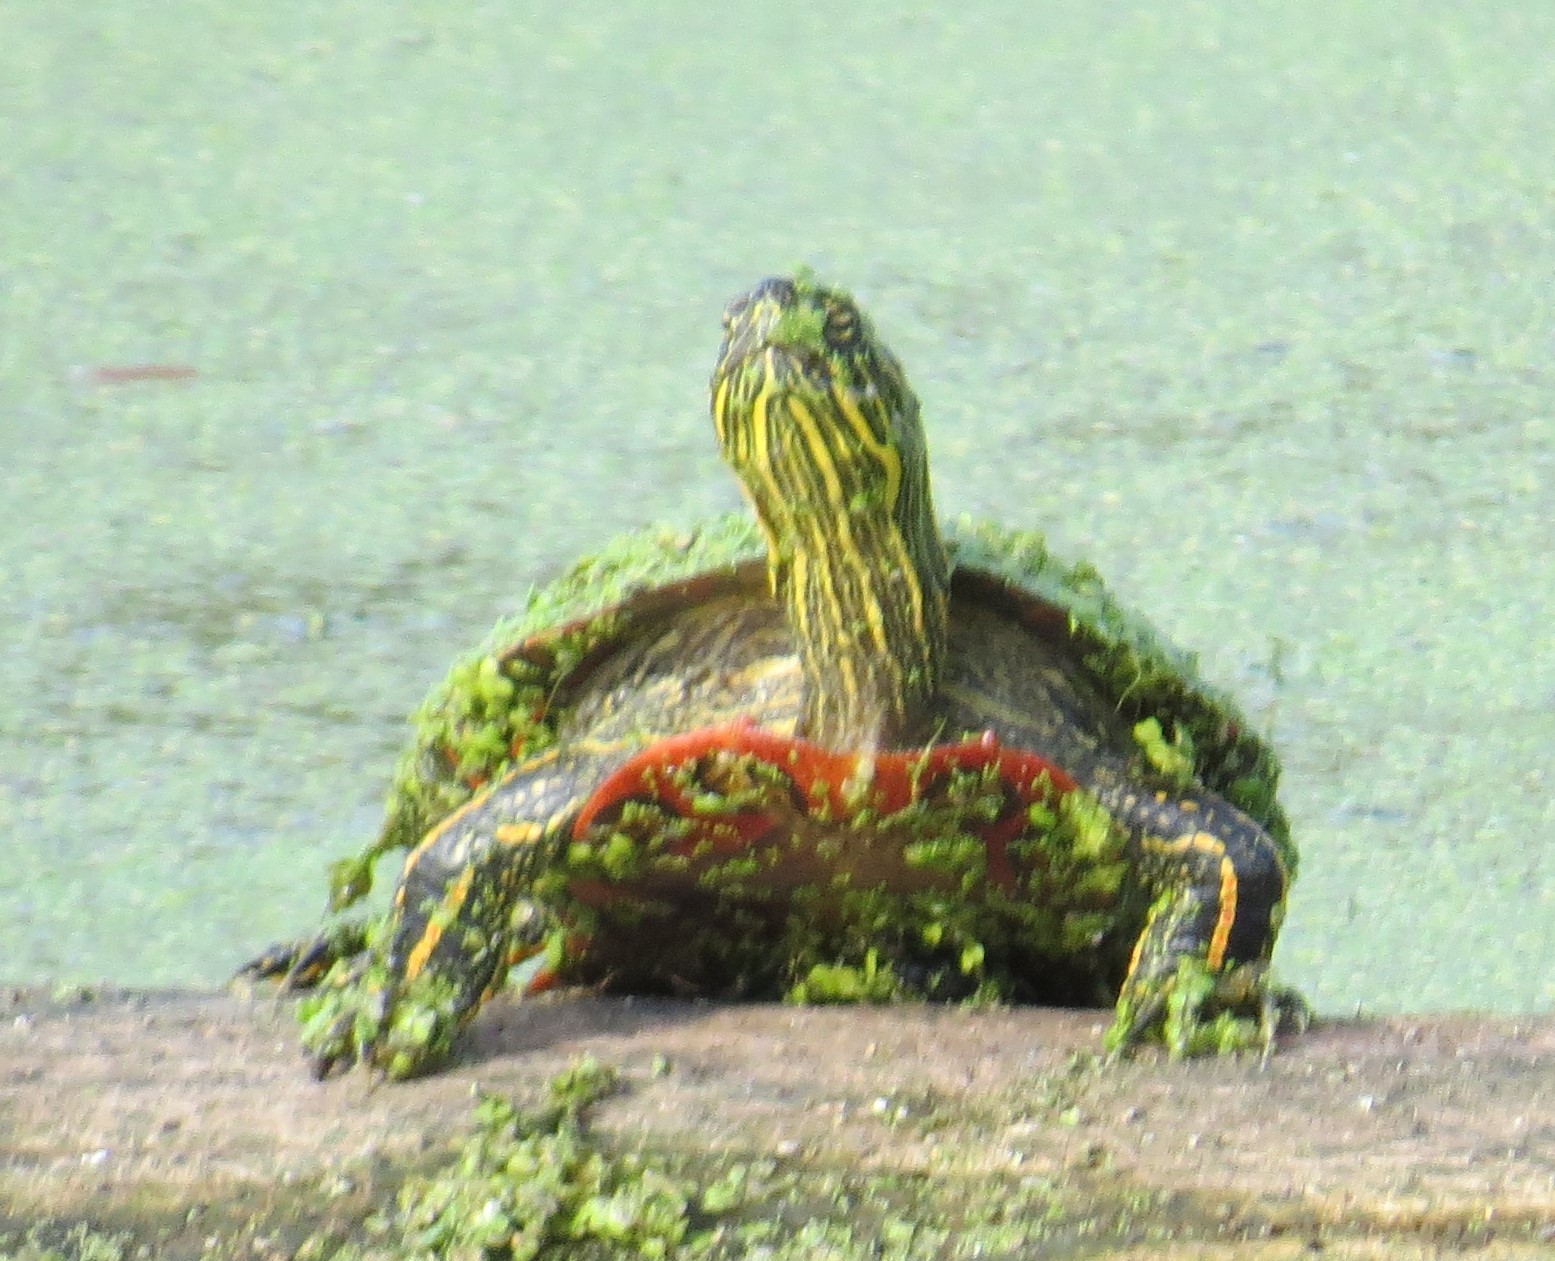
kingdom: Animalia
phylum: Chordata
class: Testudines
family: Emydidae
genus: Chrysemys
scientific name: Chrysemys picta
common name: Painted turtle
